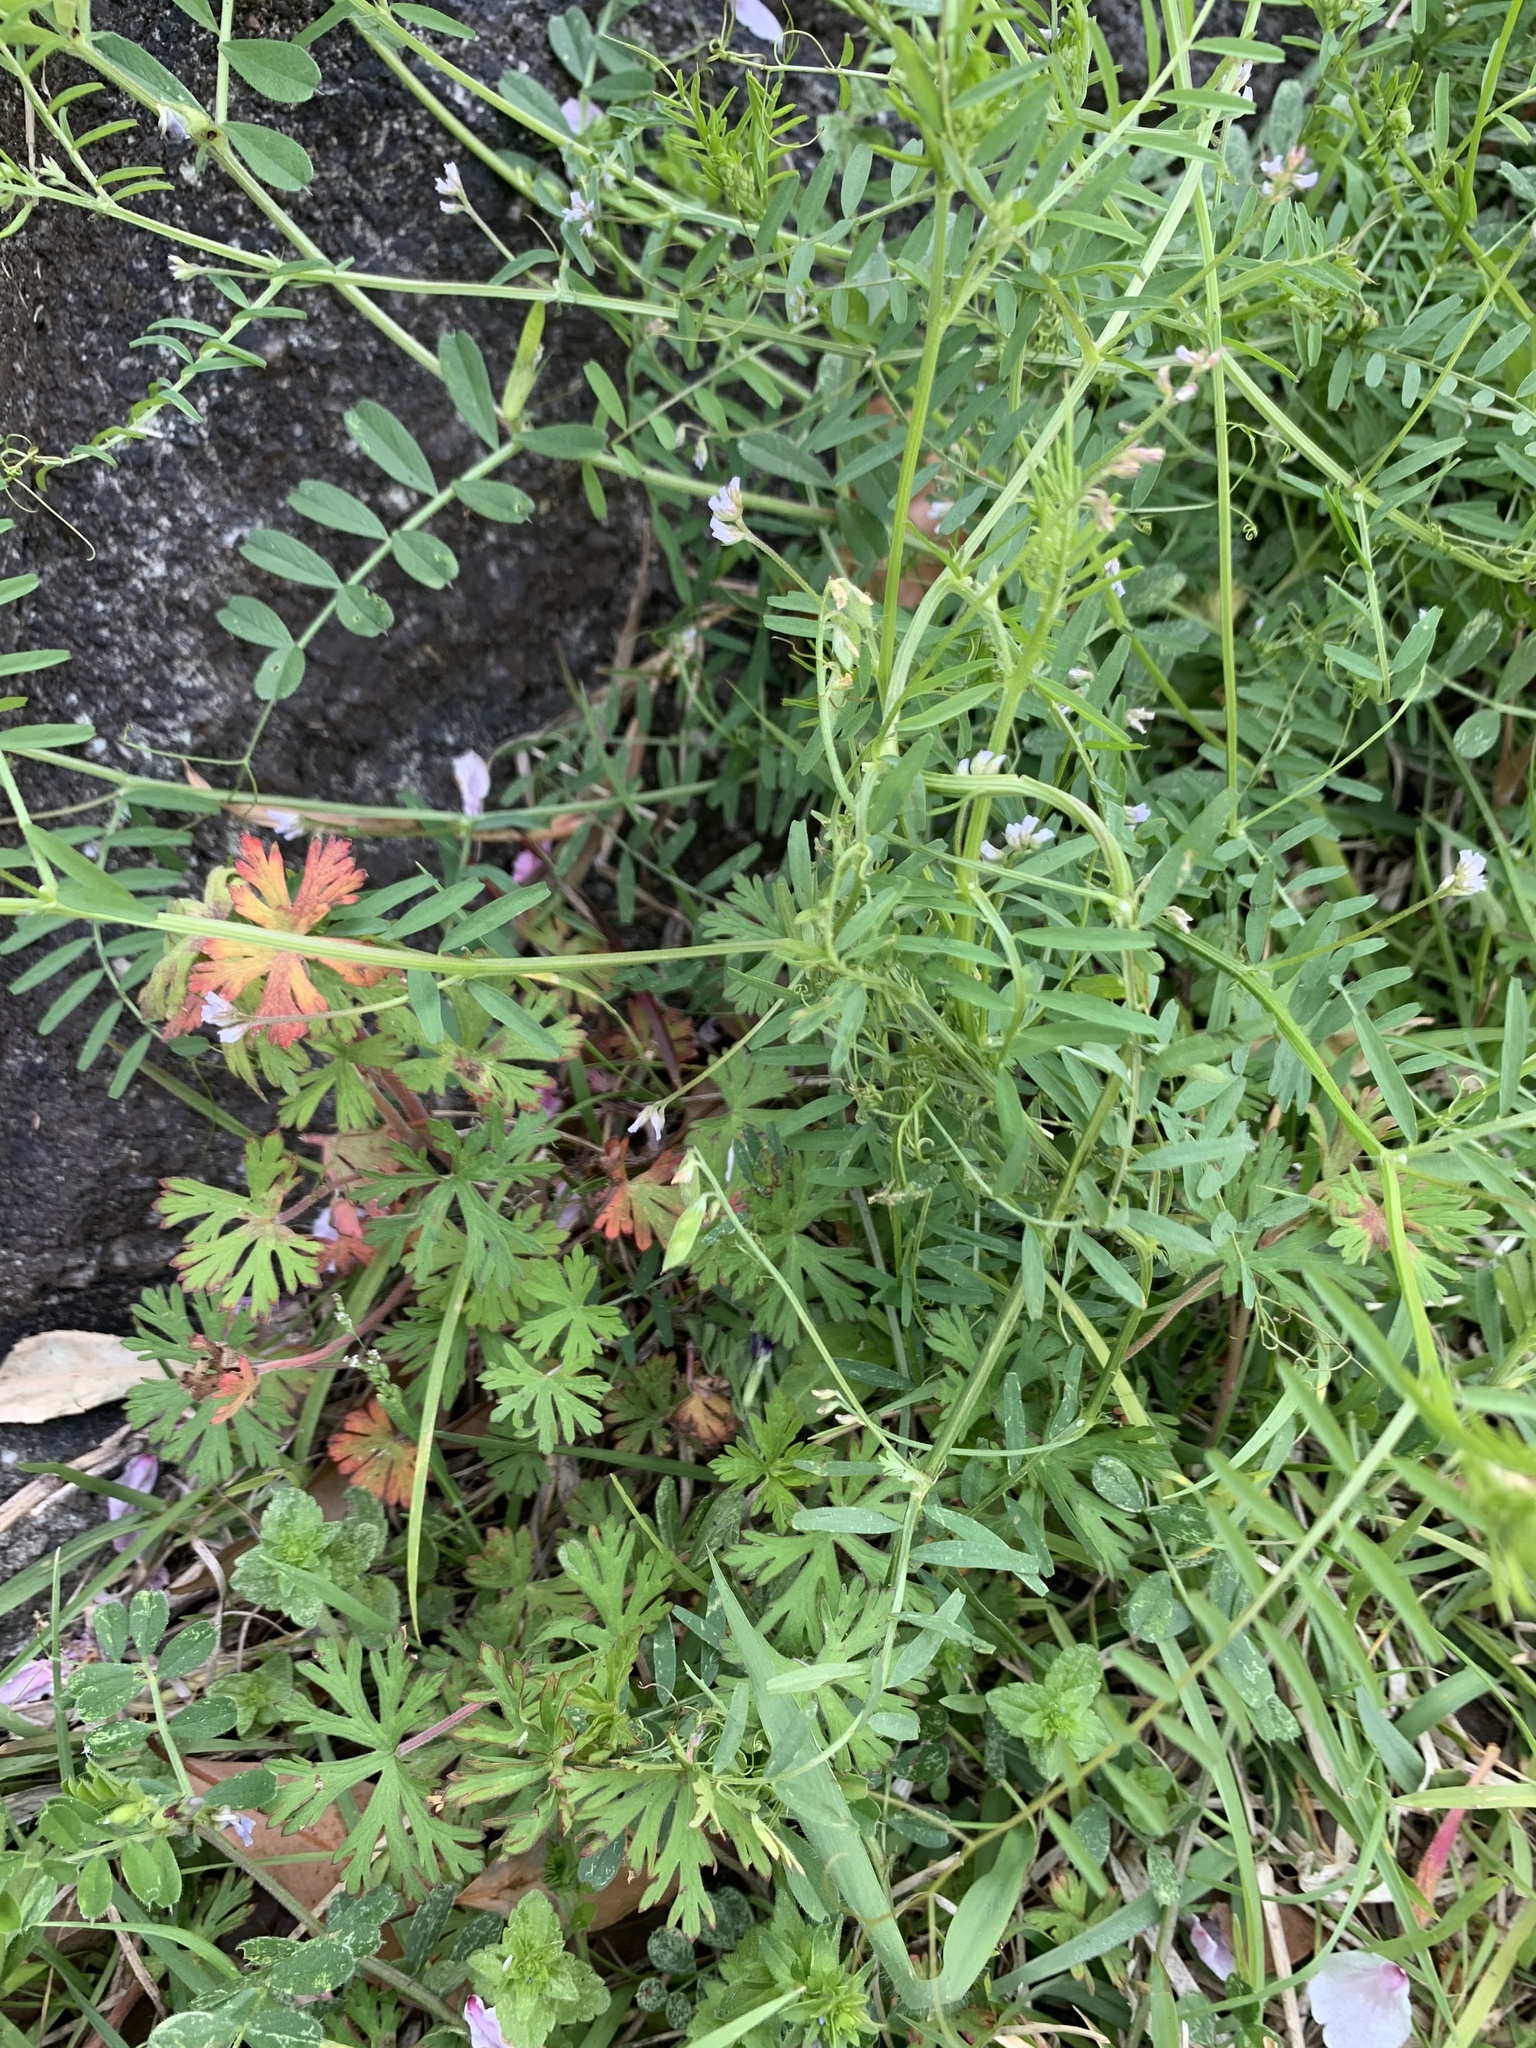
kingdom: Plantae
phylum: Tracheophyta
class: Magnoliopsida
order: Fabales
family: Fabaceae
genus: Vicia
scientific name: Vicia hirsuta
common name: Tiny vetch
